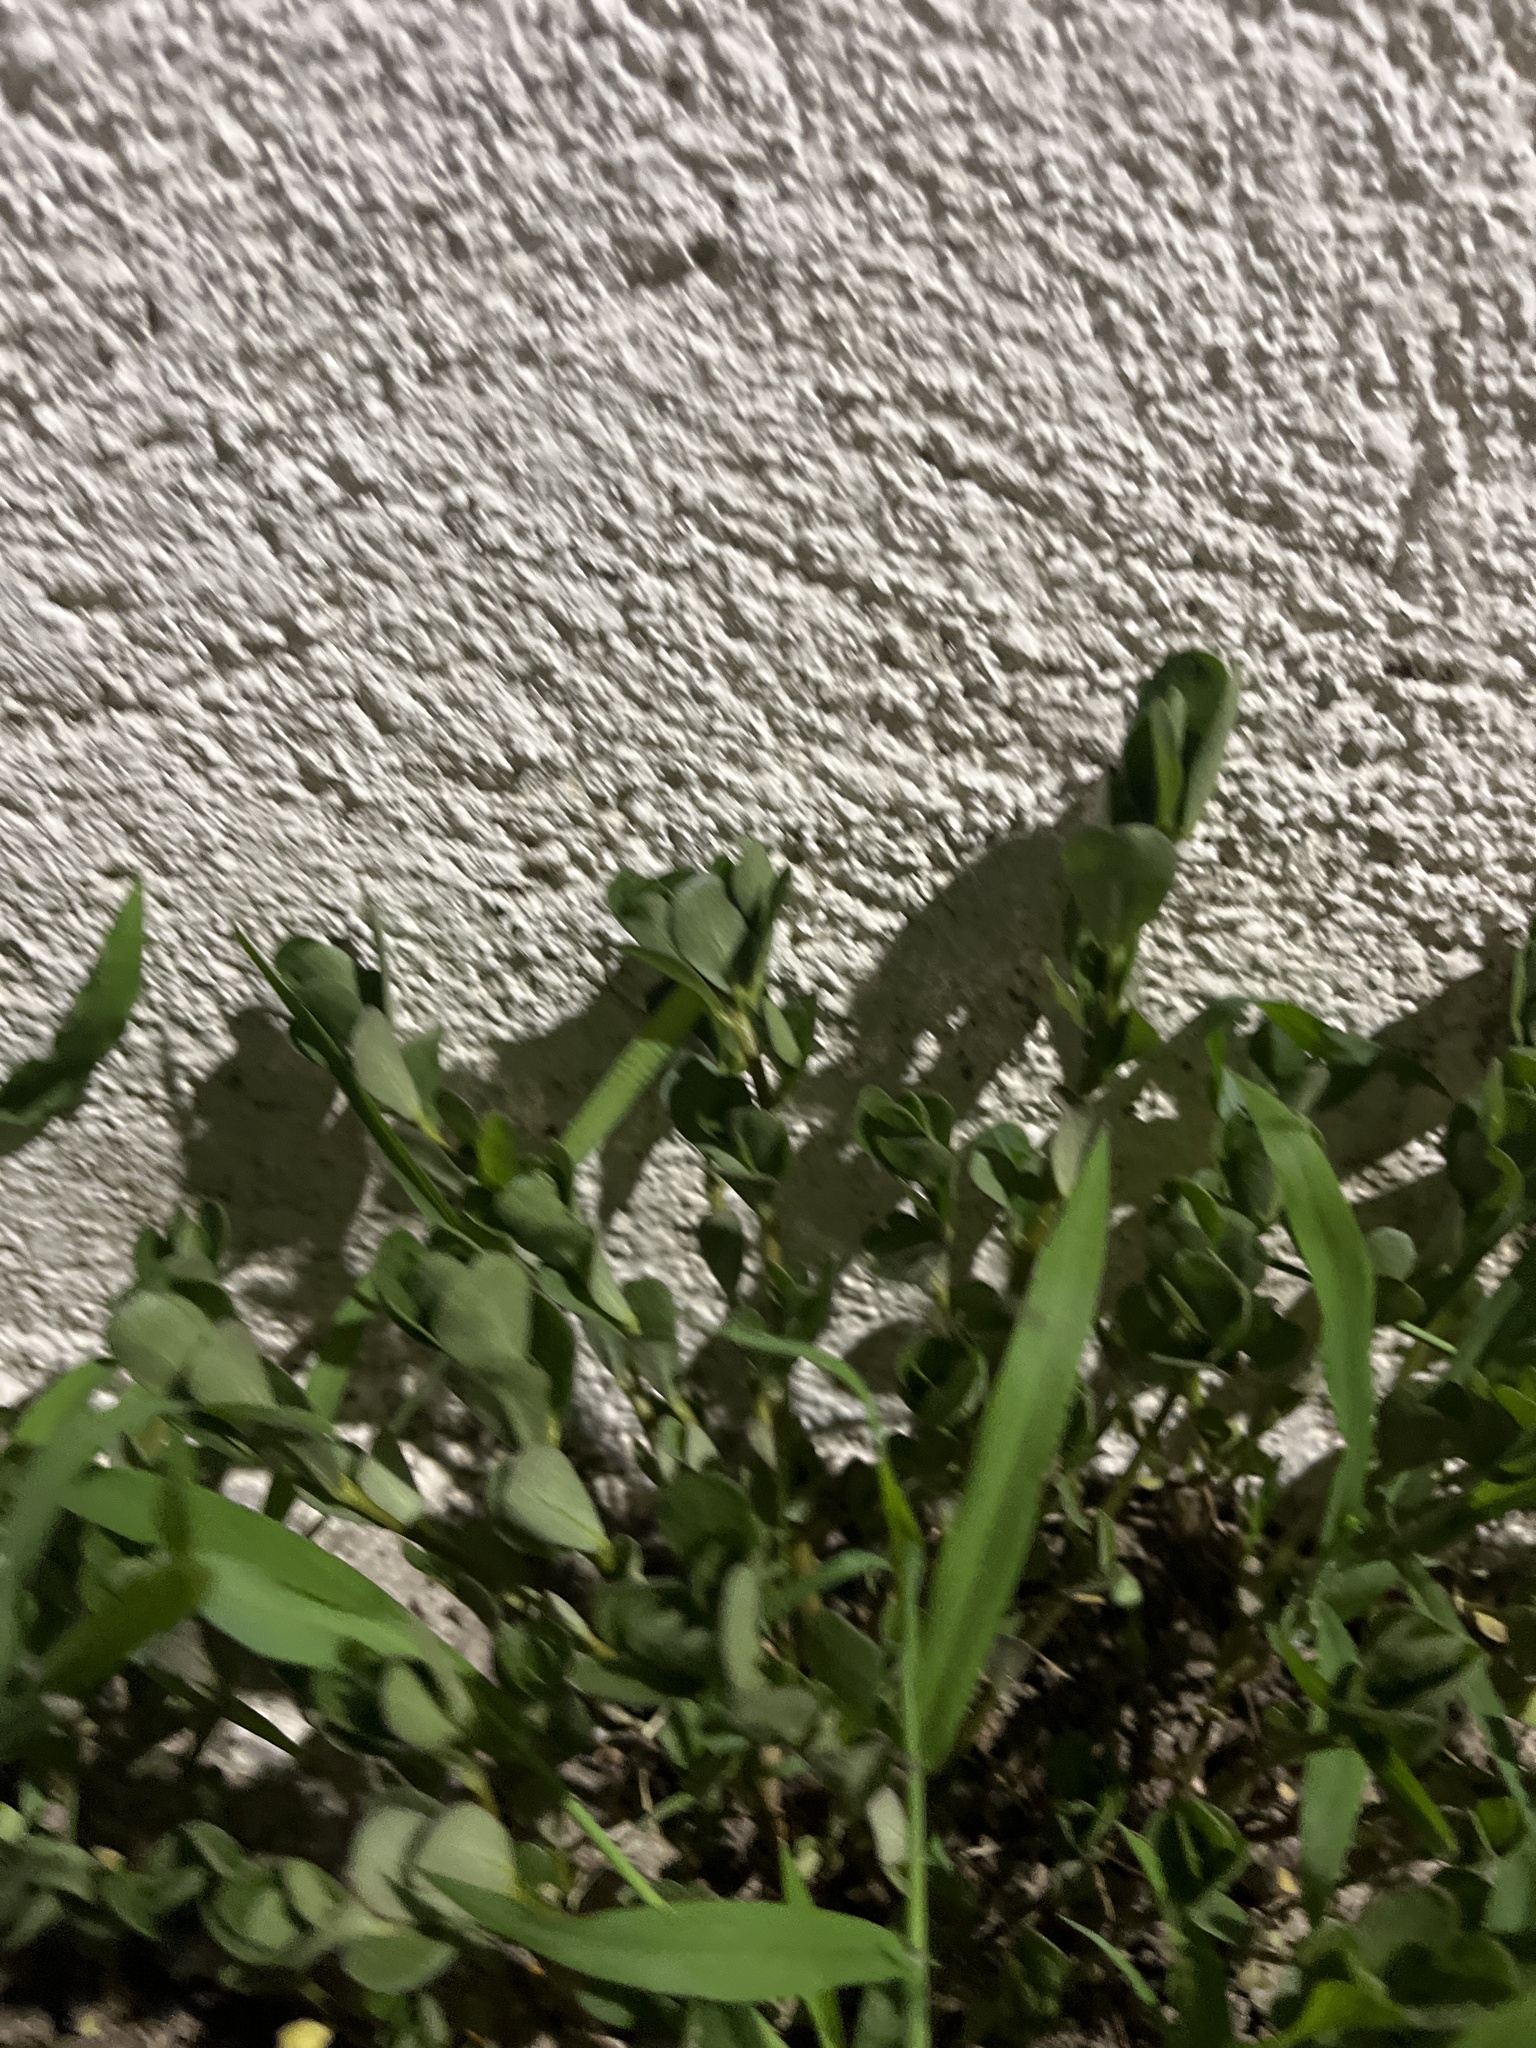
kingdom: Plantae
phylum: Tracheophyta
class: Magnoliopsida
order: Caryophyllales
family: Portulacaceae
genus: Portulaca
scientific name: Portulaca oleracea
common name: Common purslane
